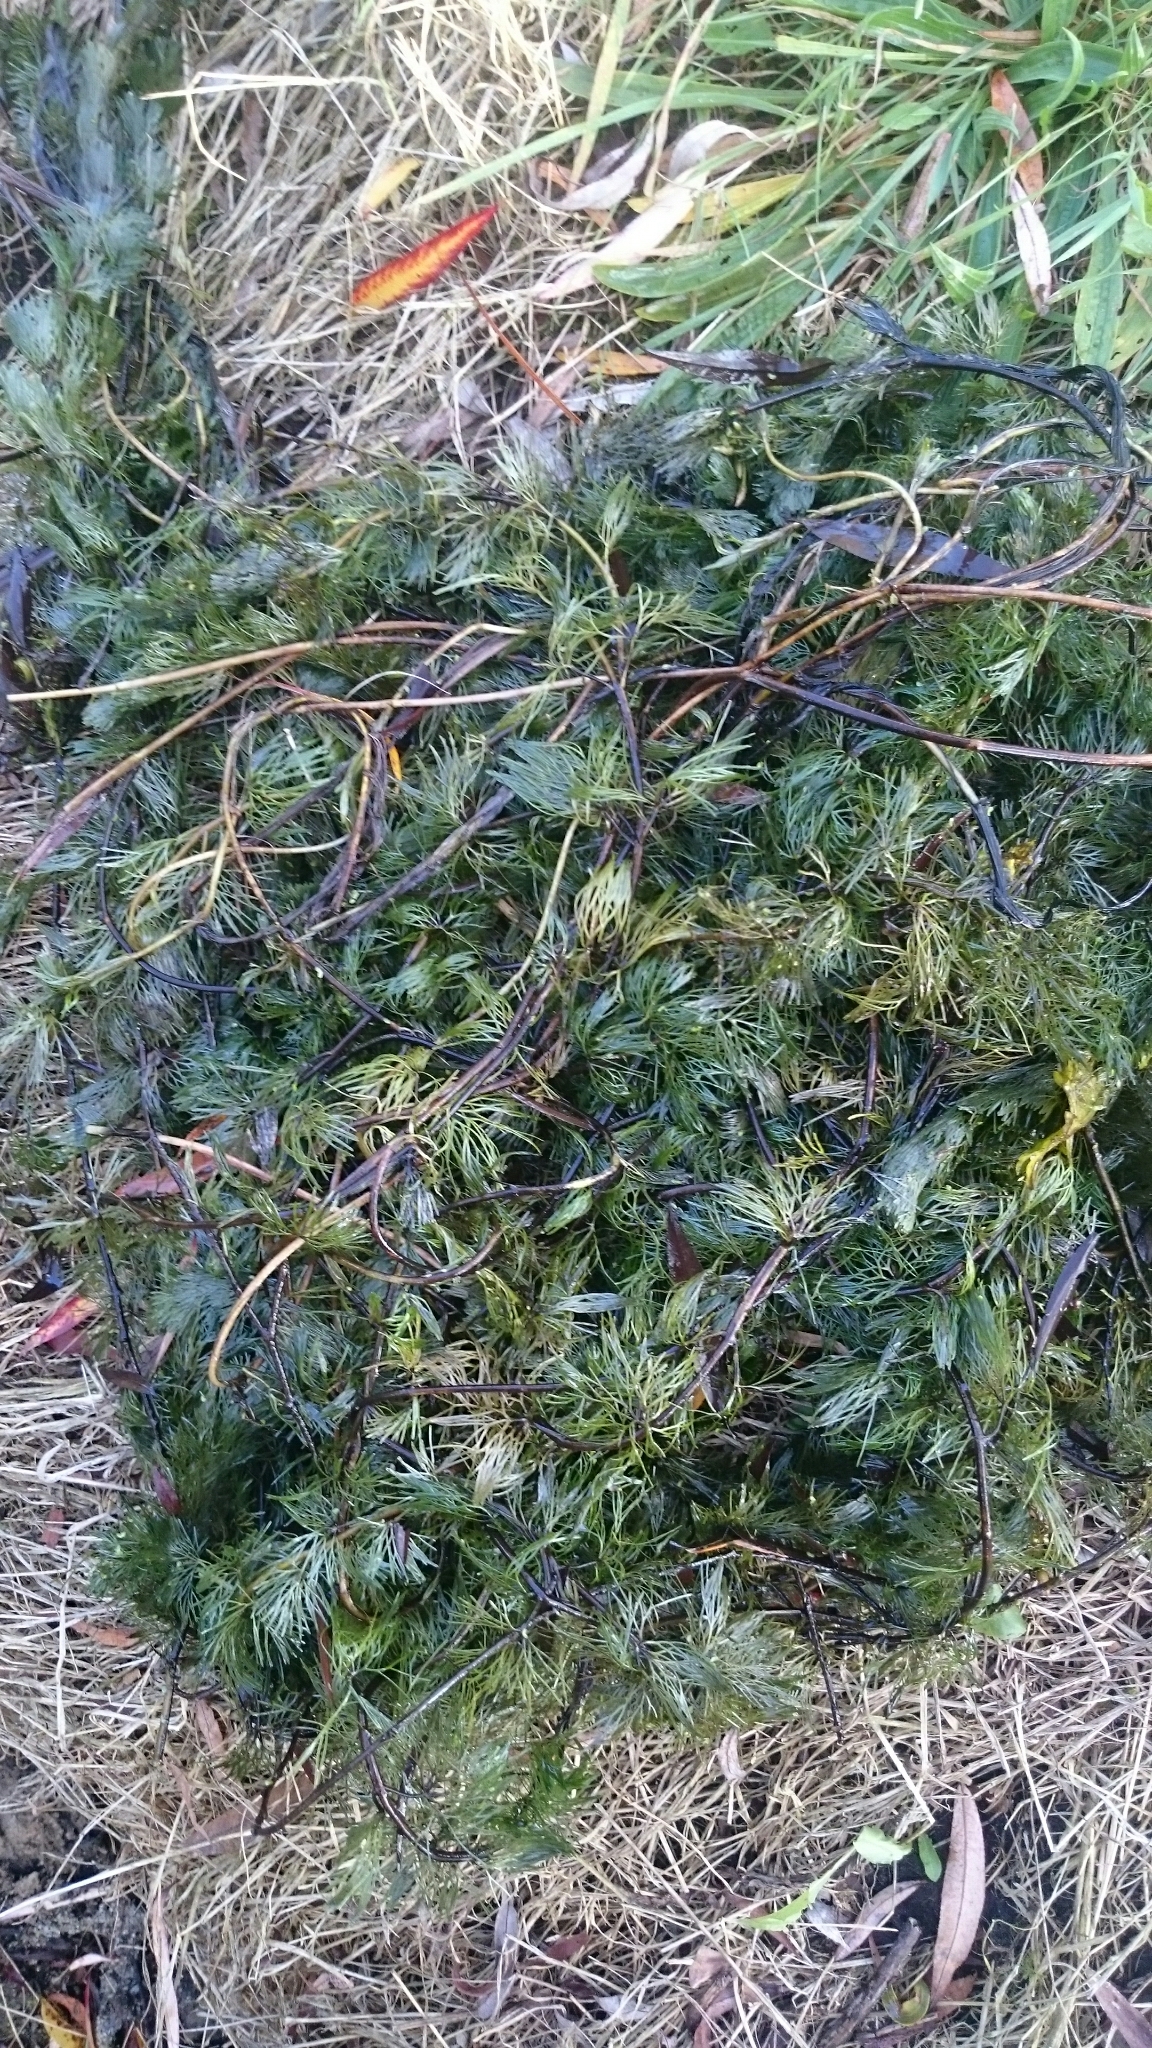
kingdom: Plantae
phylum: Tracheophyta
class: Magnoliopsida
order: Nymphaeales
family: Cabombaceae
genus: Cabomba
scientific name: Cabomba caroliniana
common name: Fanwort
